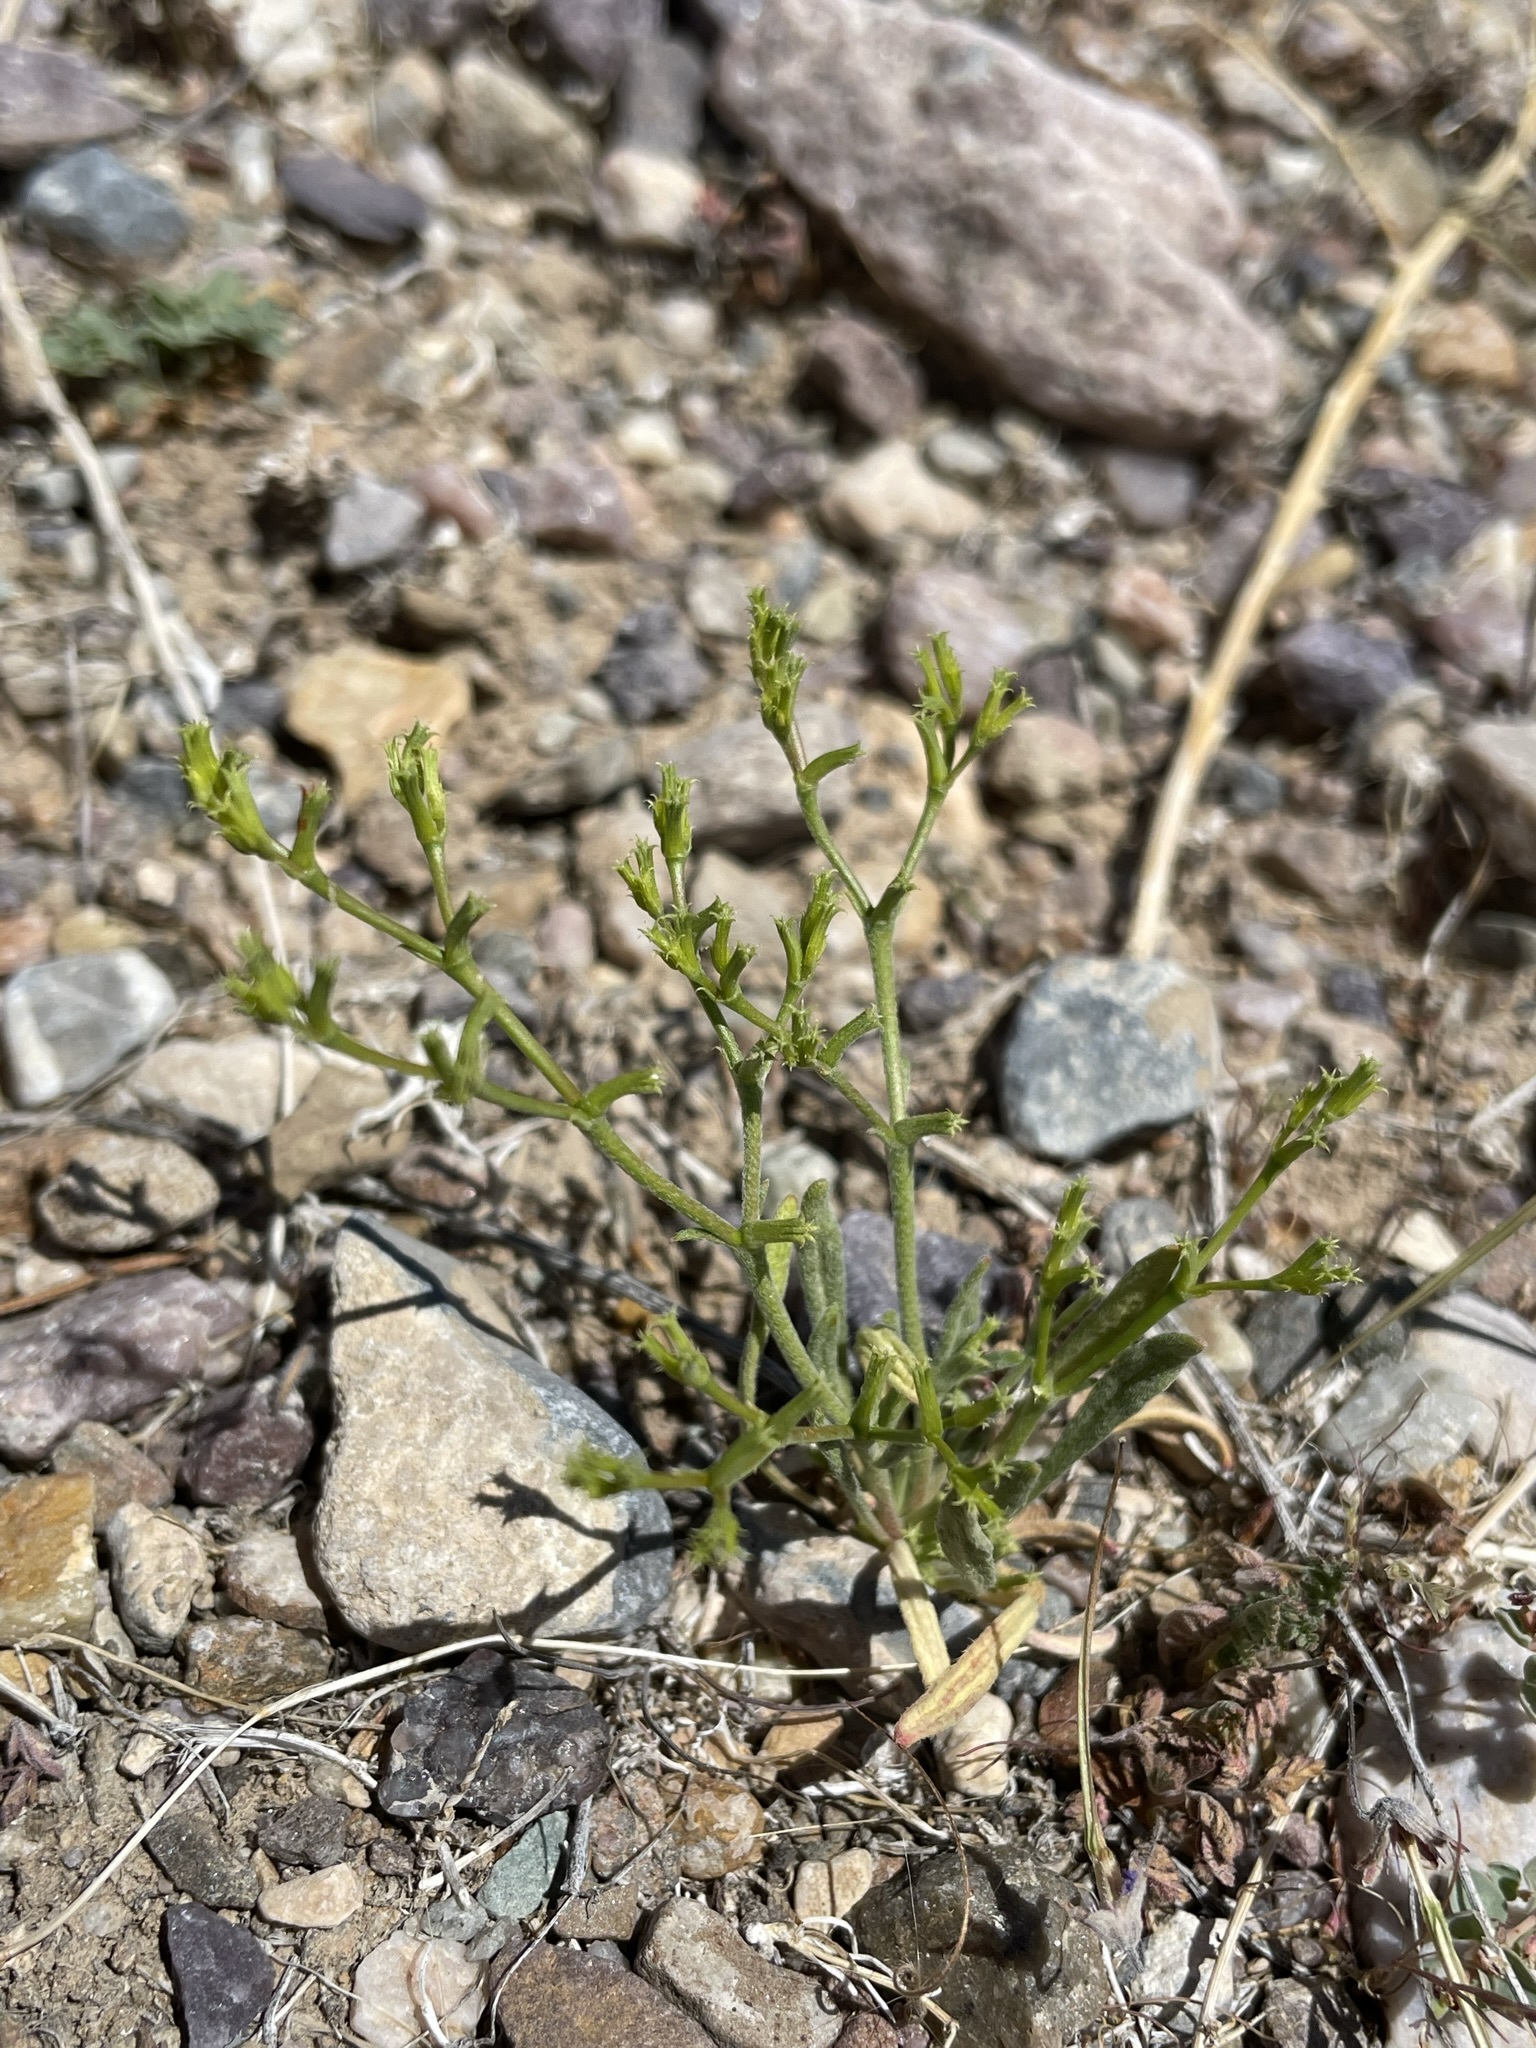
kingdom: Plantae
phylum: Tracheophyta
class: Magnoliopsida
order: Caryophyllales
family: Polygonaceae
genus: Chorizanthe
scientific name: Chorizanthe brevicornu
